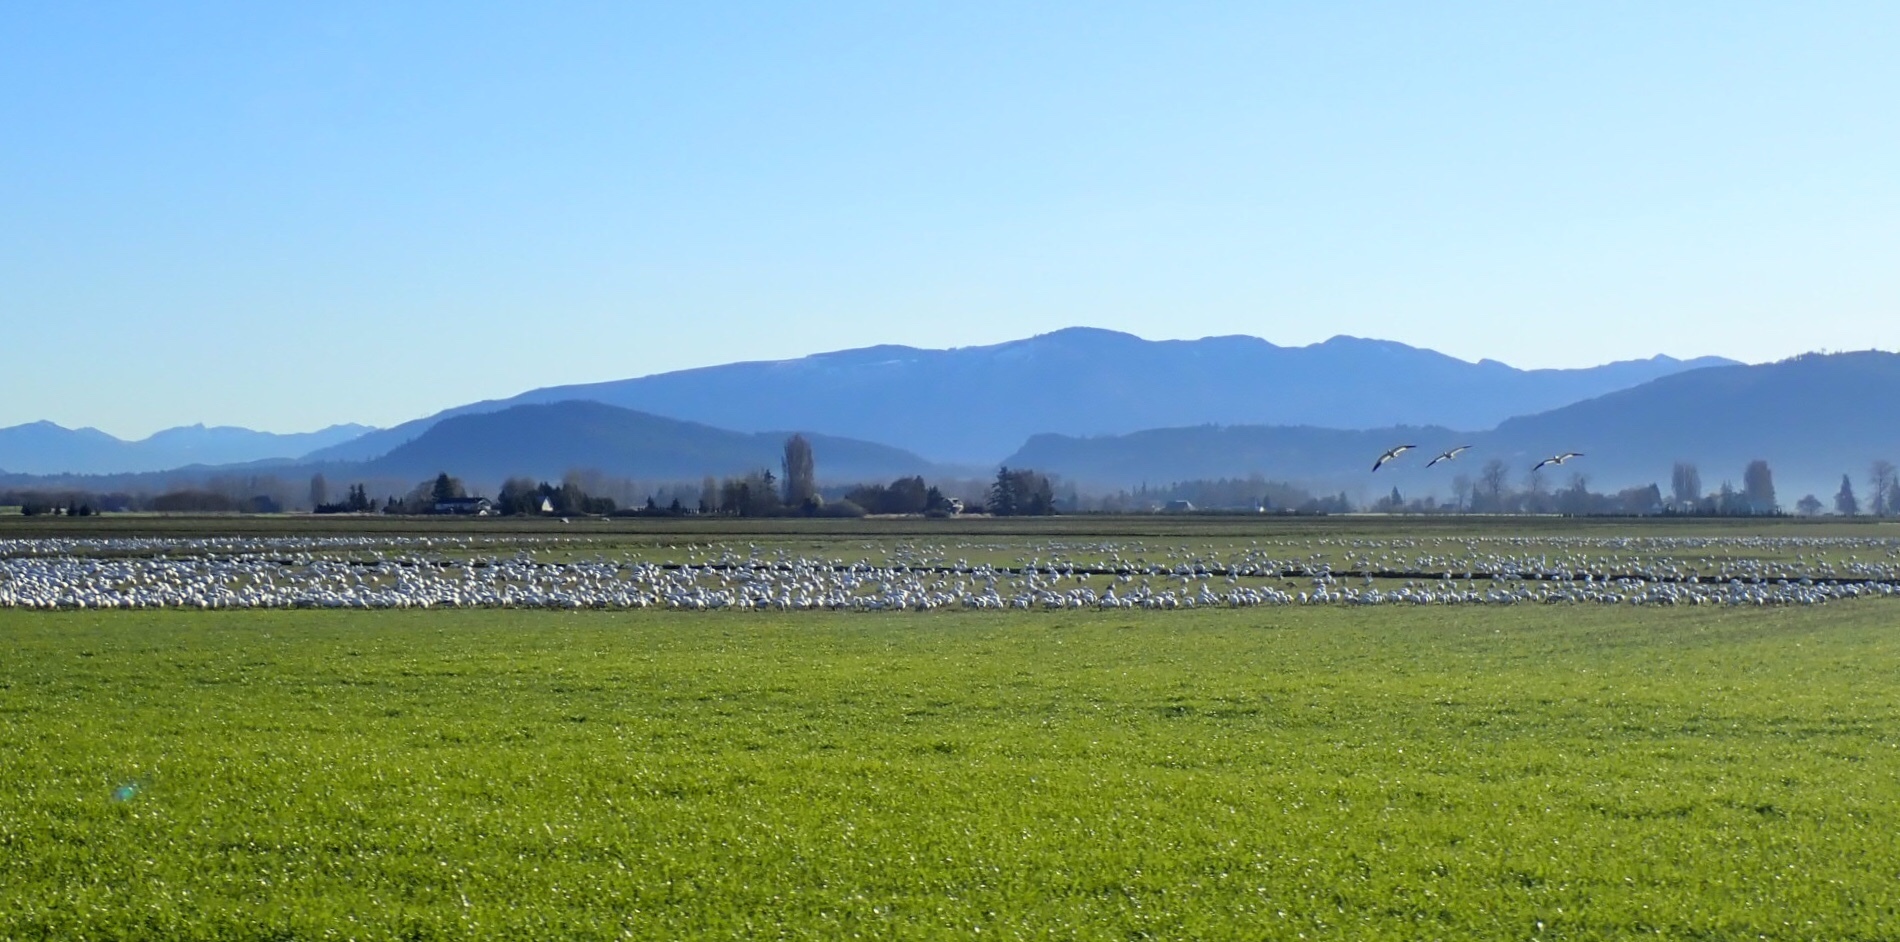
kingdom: Animalia
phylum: Chordata
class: Aves
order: Anseriformes
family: Anatidae
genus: Anser
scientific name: Anser caerulescens
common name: Snow goose
